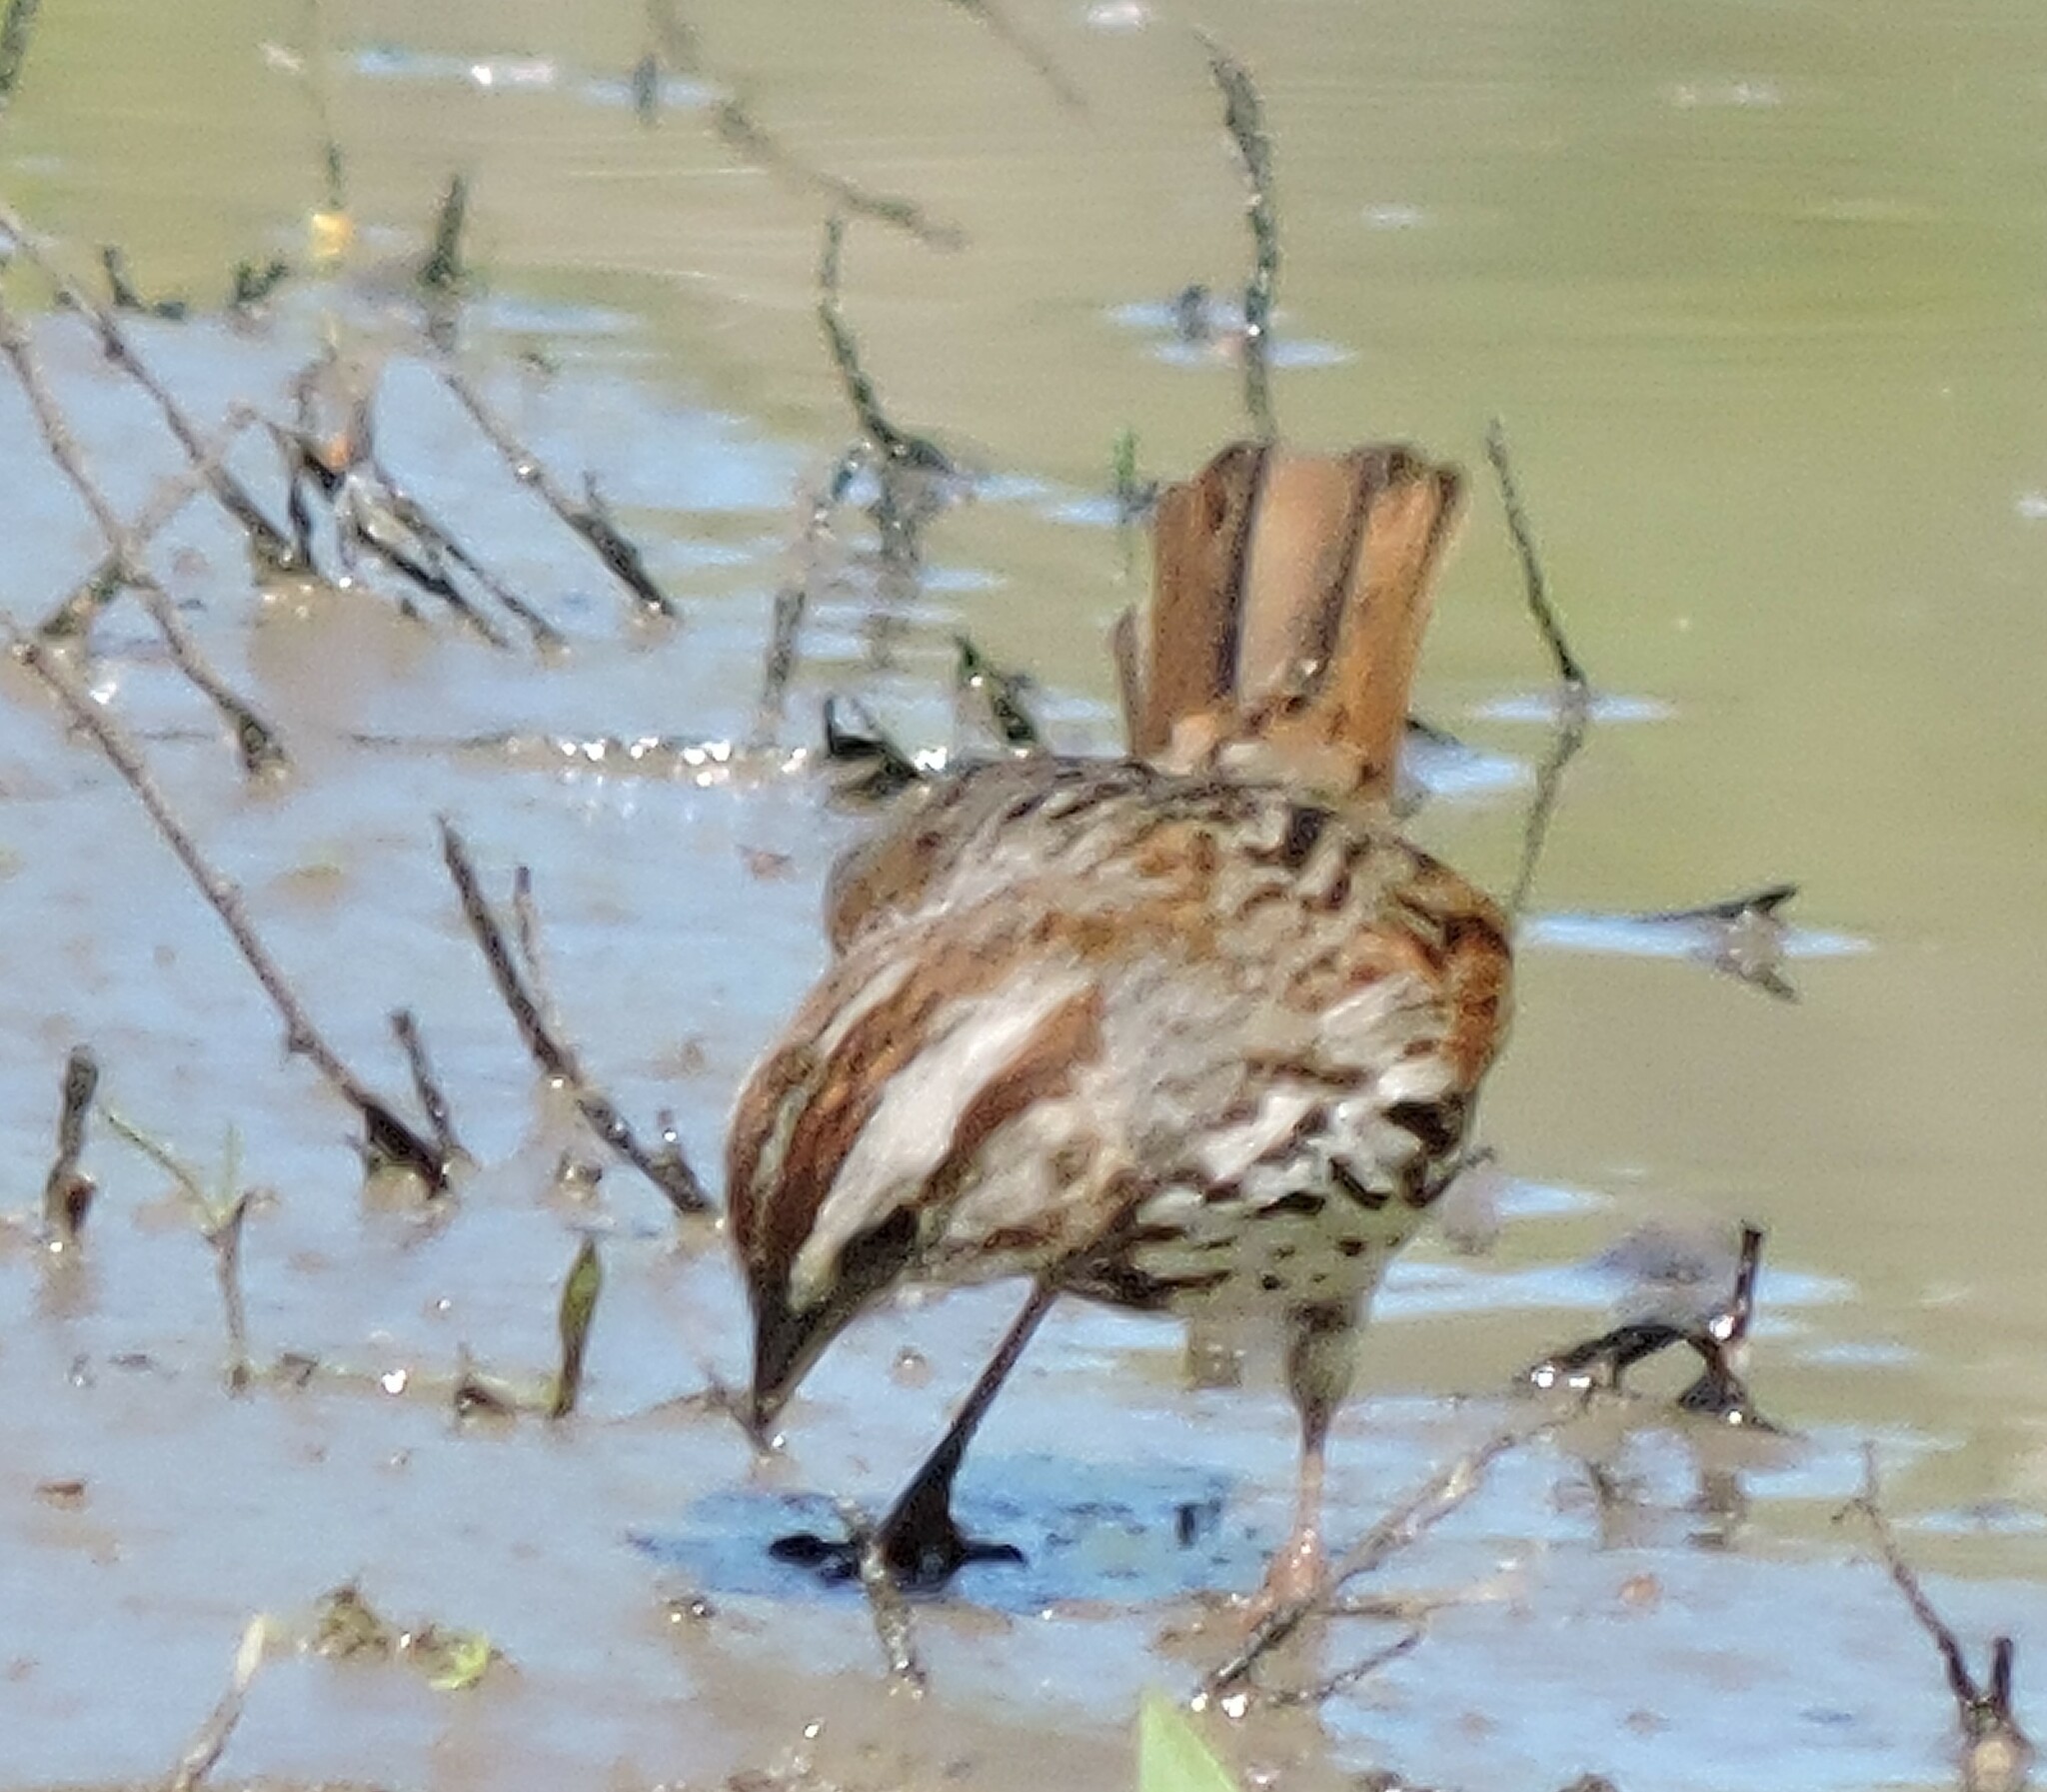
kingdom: Animalia
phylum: Chordata
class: Aves
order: Passeriformes
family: Passerellidae
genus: Melospiza
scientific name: Melospiza melodia
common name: Song sparrow
